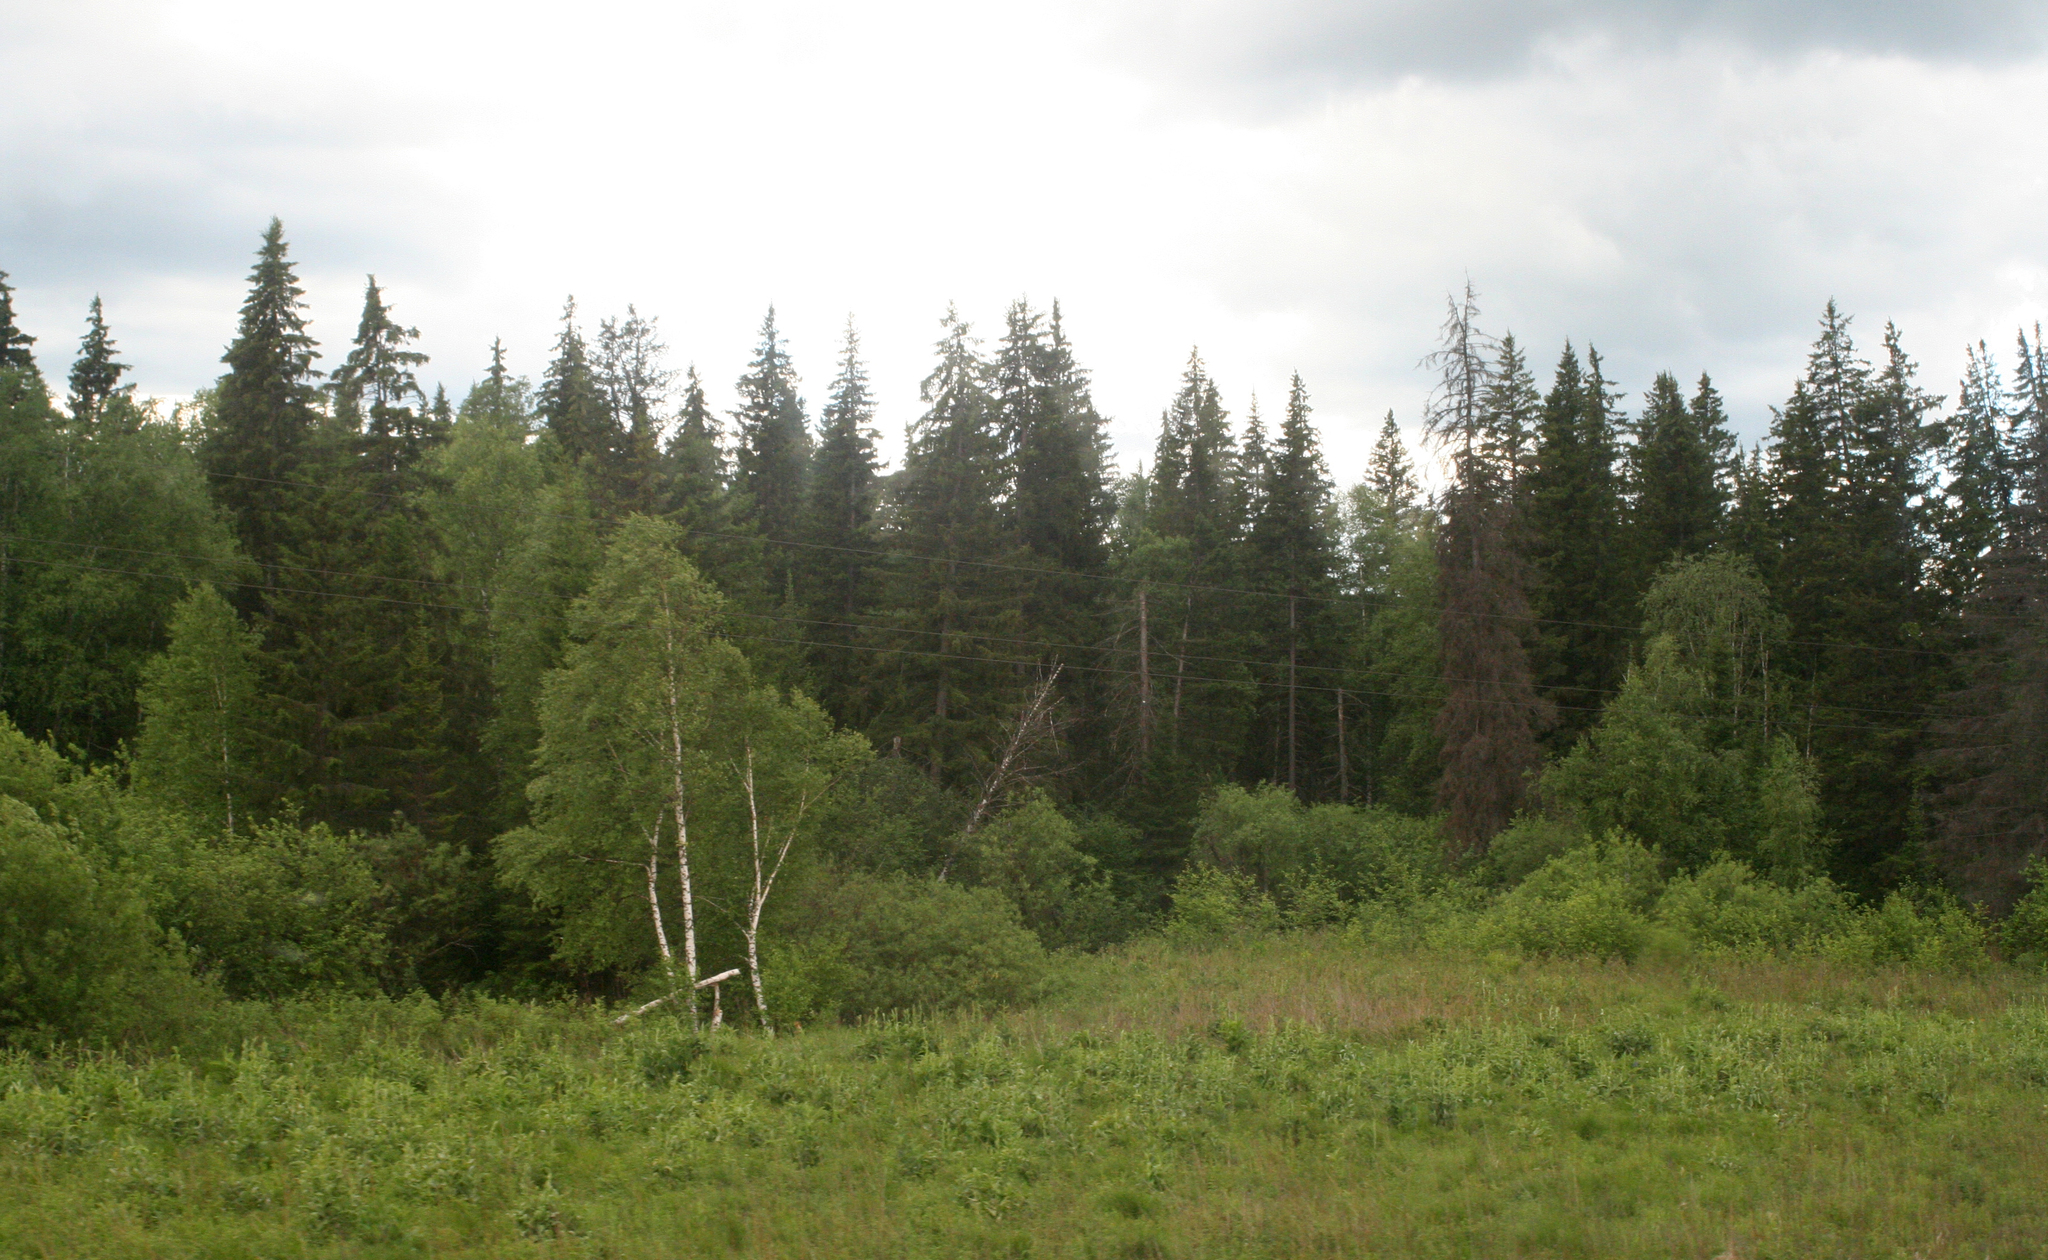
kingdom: Plantae
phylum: Tracheophyta
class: Pinopsida
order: Pinales
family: Pinaceae
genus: Picea
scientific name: Picea obovata
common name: Siberian spruce
